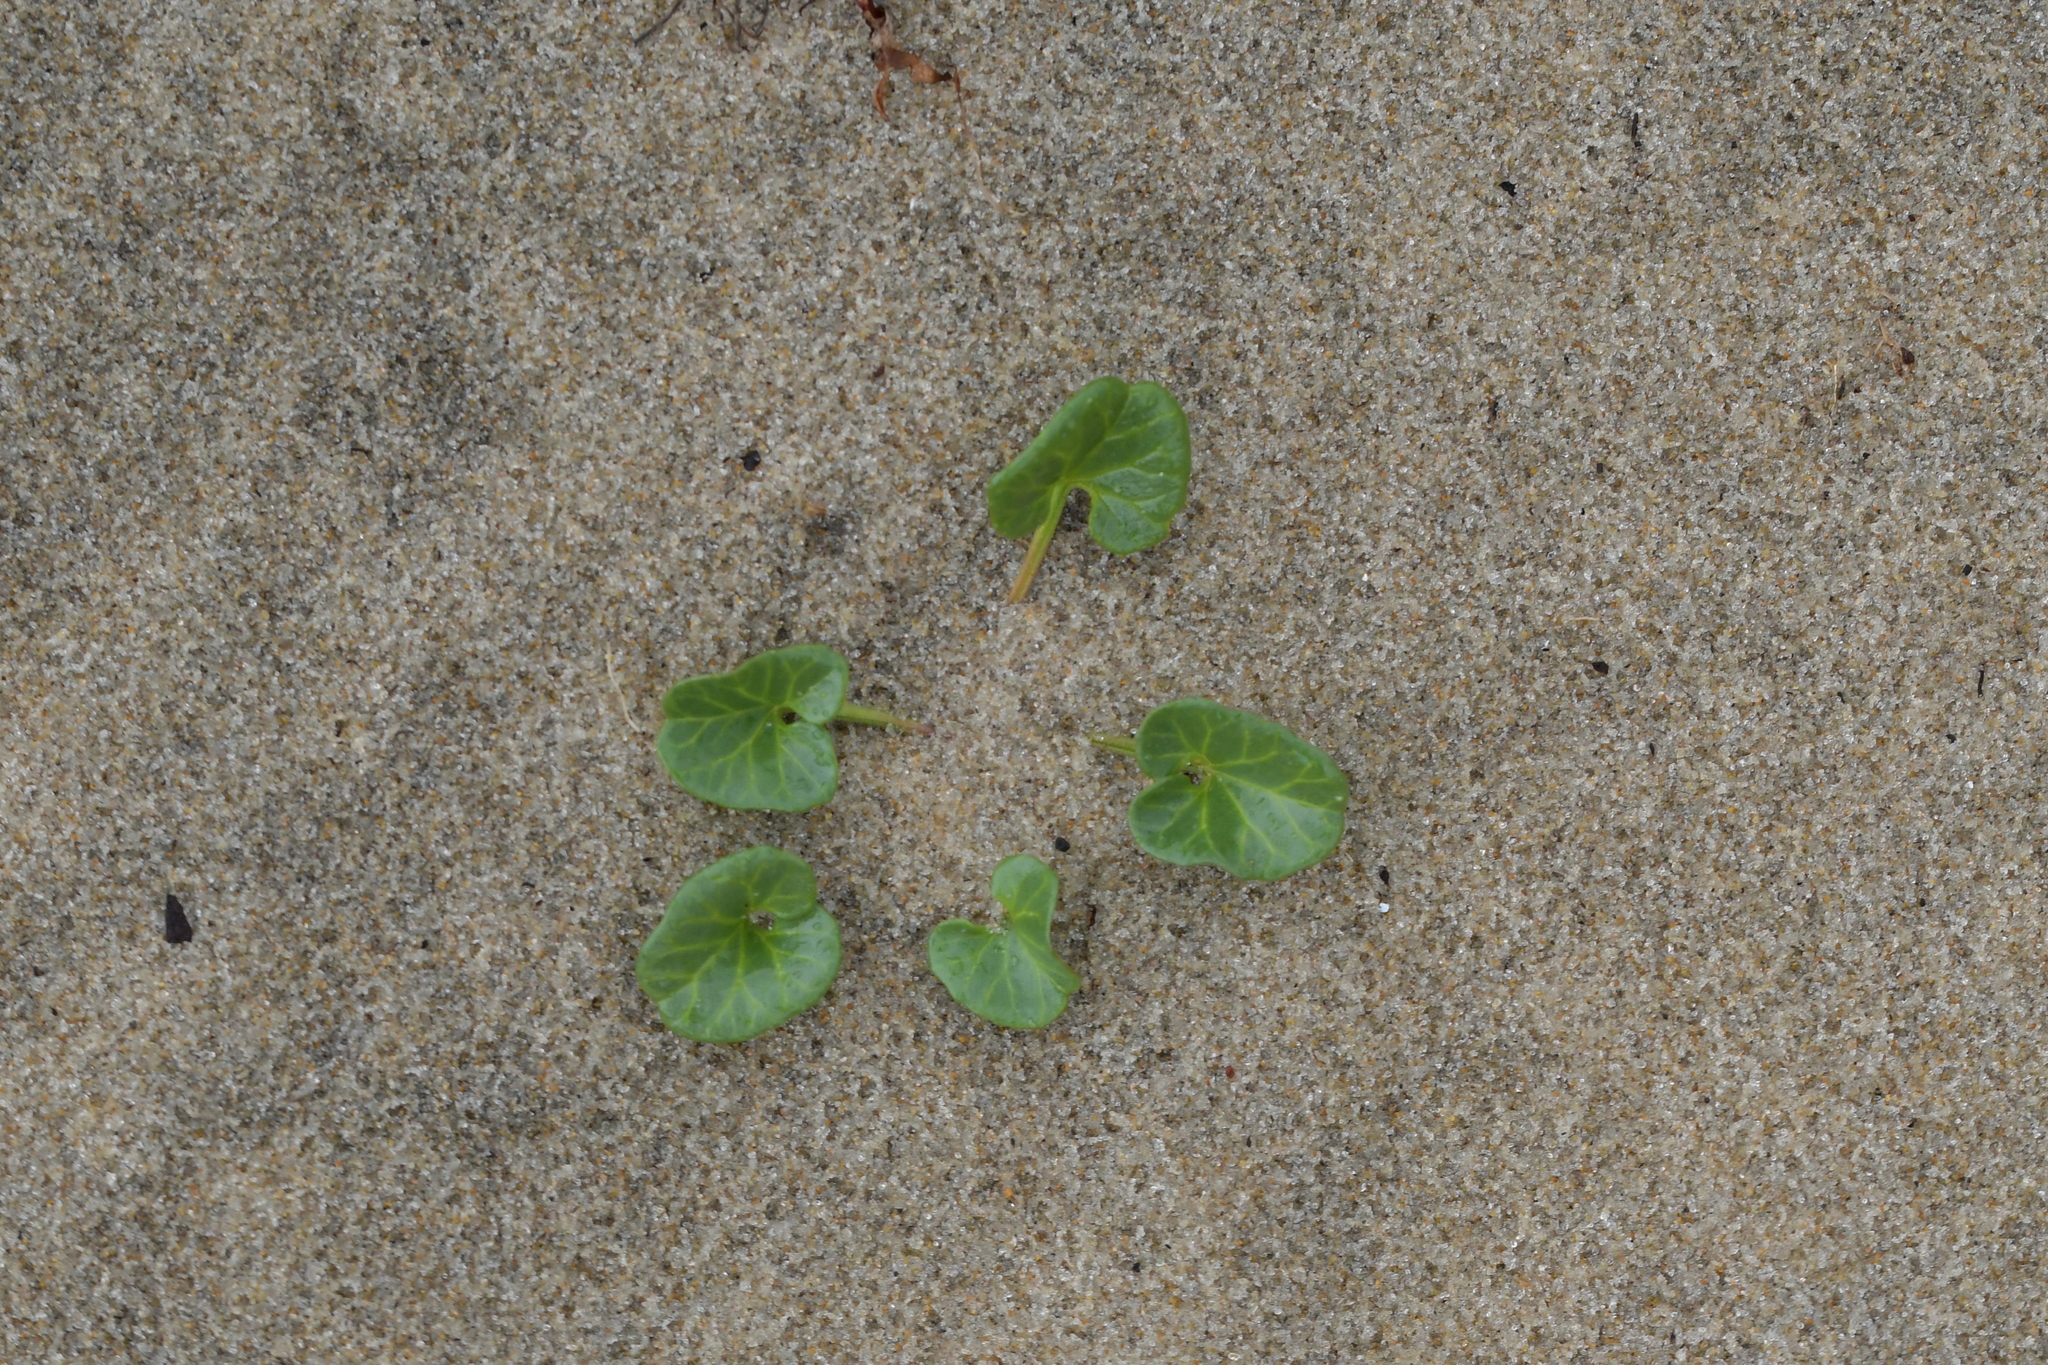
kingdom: Plantae
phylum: Tracheophyta
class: Magnoliopsida
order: Solanales
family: Convolvulaceae
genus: Calystegia
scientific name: Calystegia soldanella
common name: Sea bindweed
